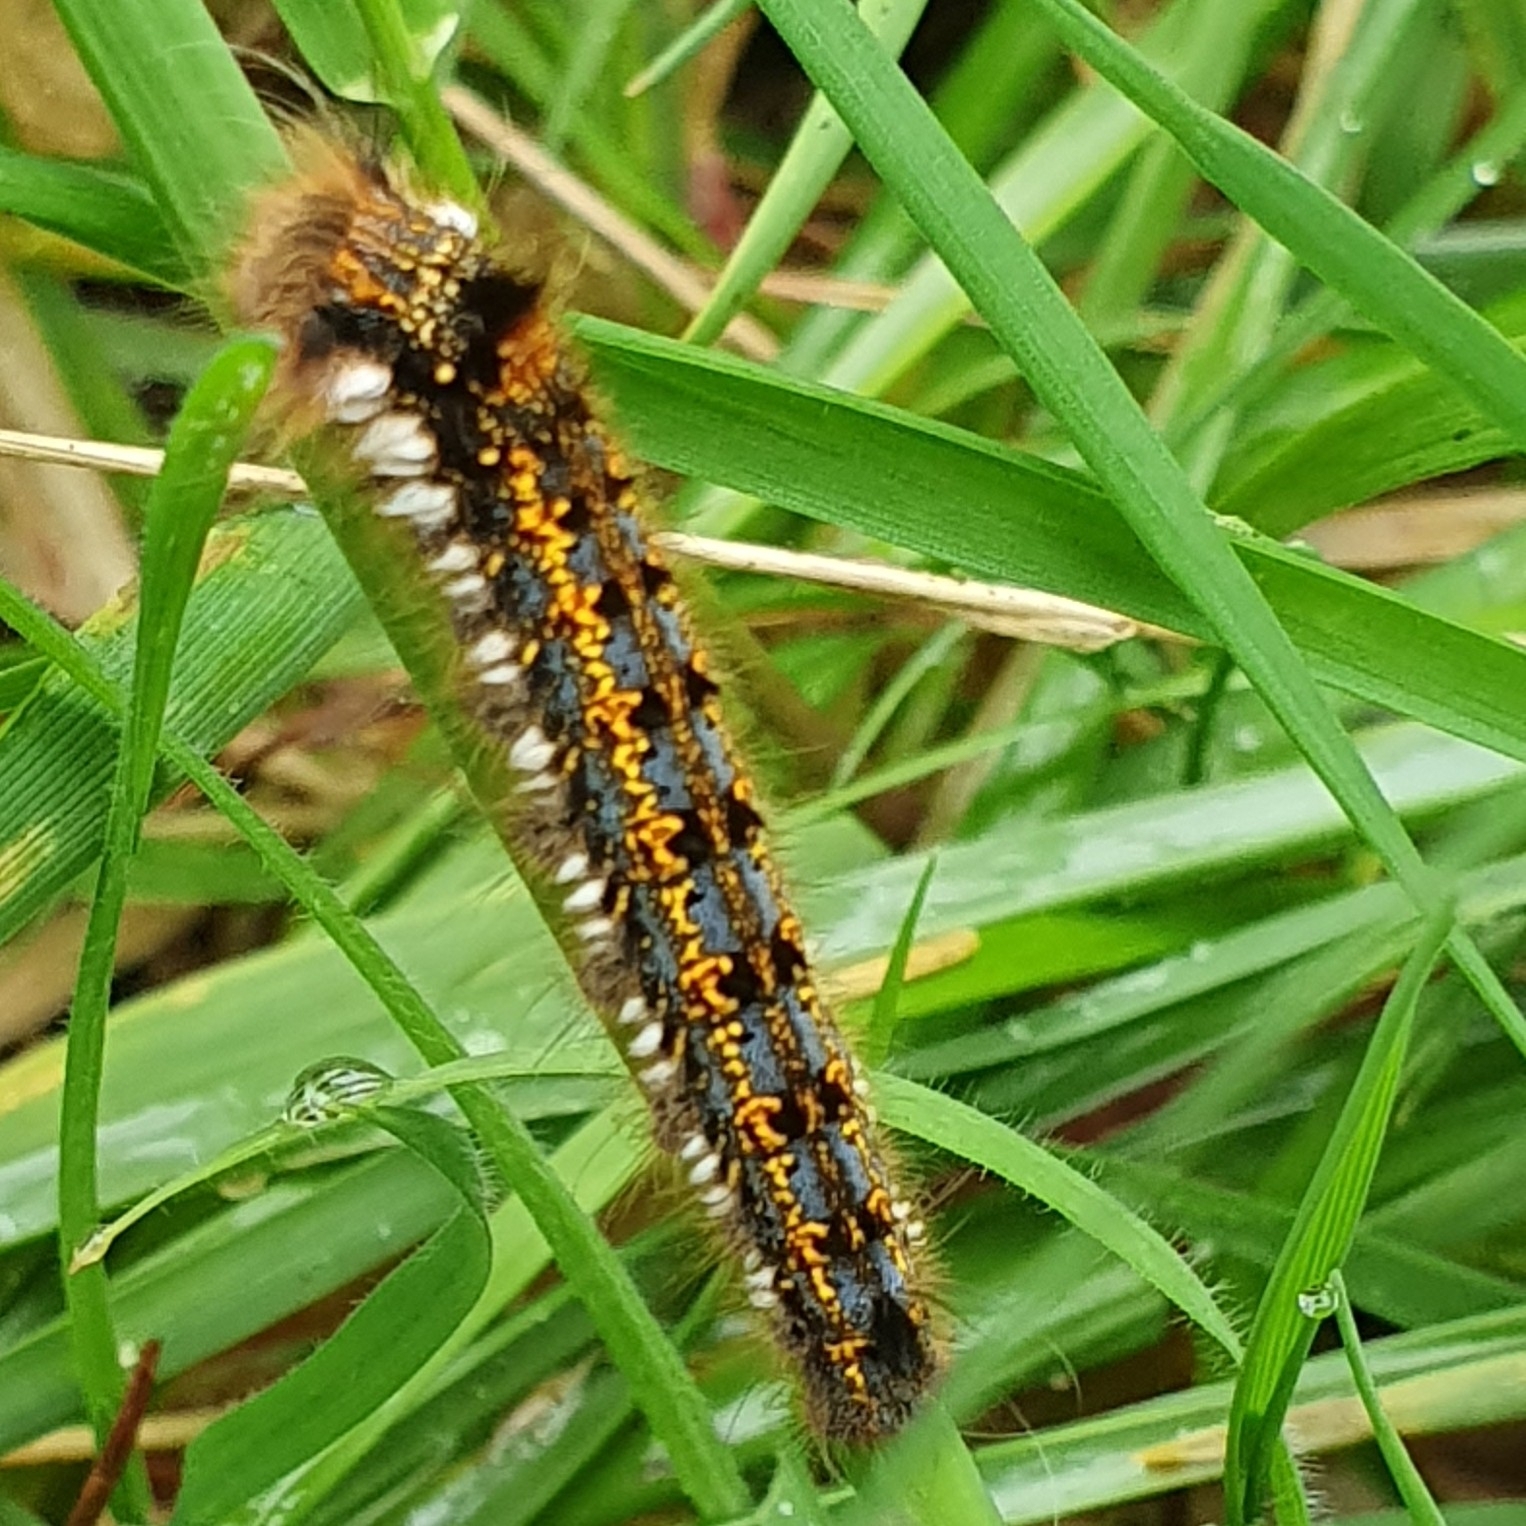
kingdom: Animalia
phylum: Arthropoda
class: Insecta
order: Lepidoptera
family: Lasiocampidae
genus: Euthrix
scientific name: Euthrix potatoria
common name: Drinker
